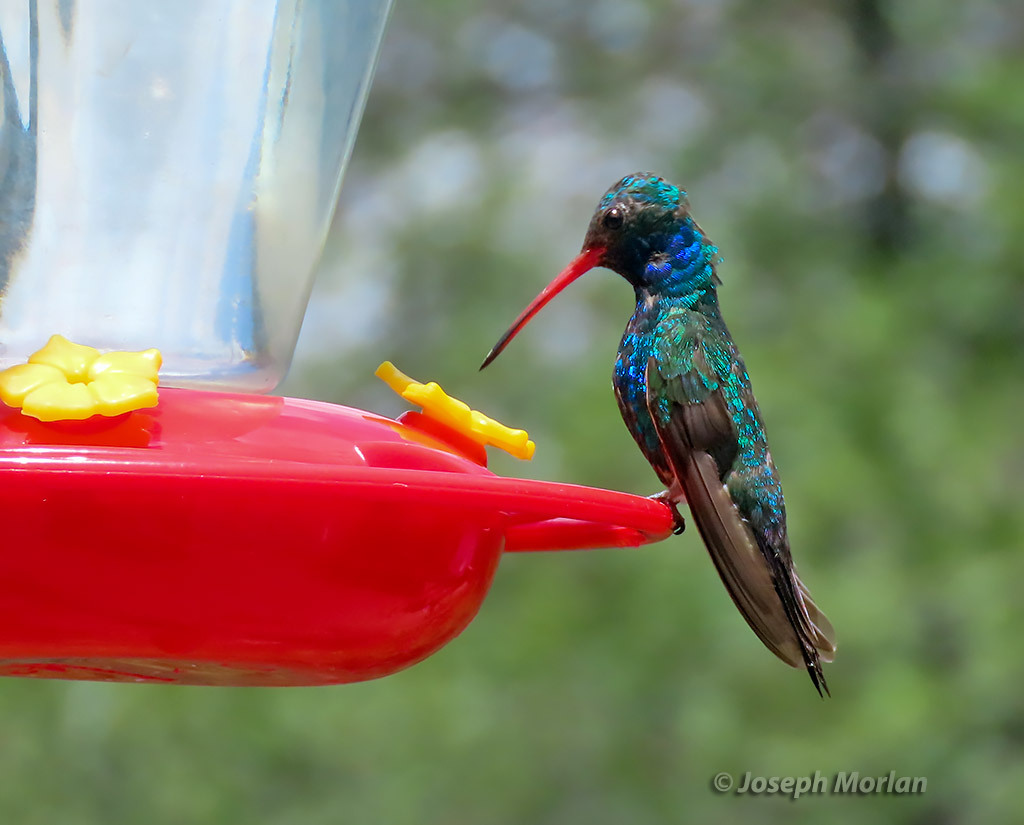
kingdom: Animalia
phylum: Chordata
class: Aves
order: Apodiformes
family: Trochilidae
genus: Cynanthus
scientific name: Cynanthus latirostris
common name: Broad-billed hummingbird
